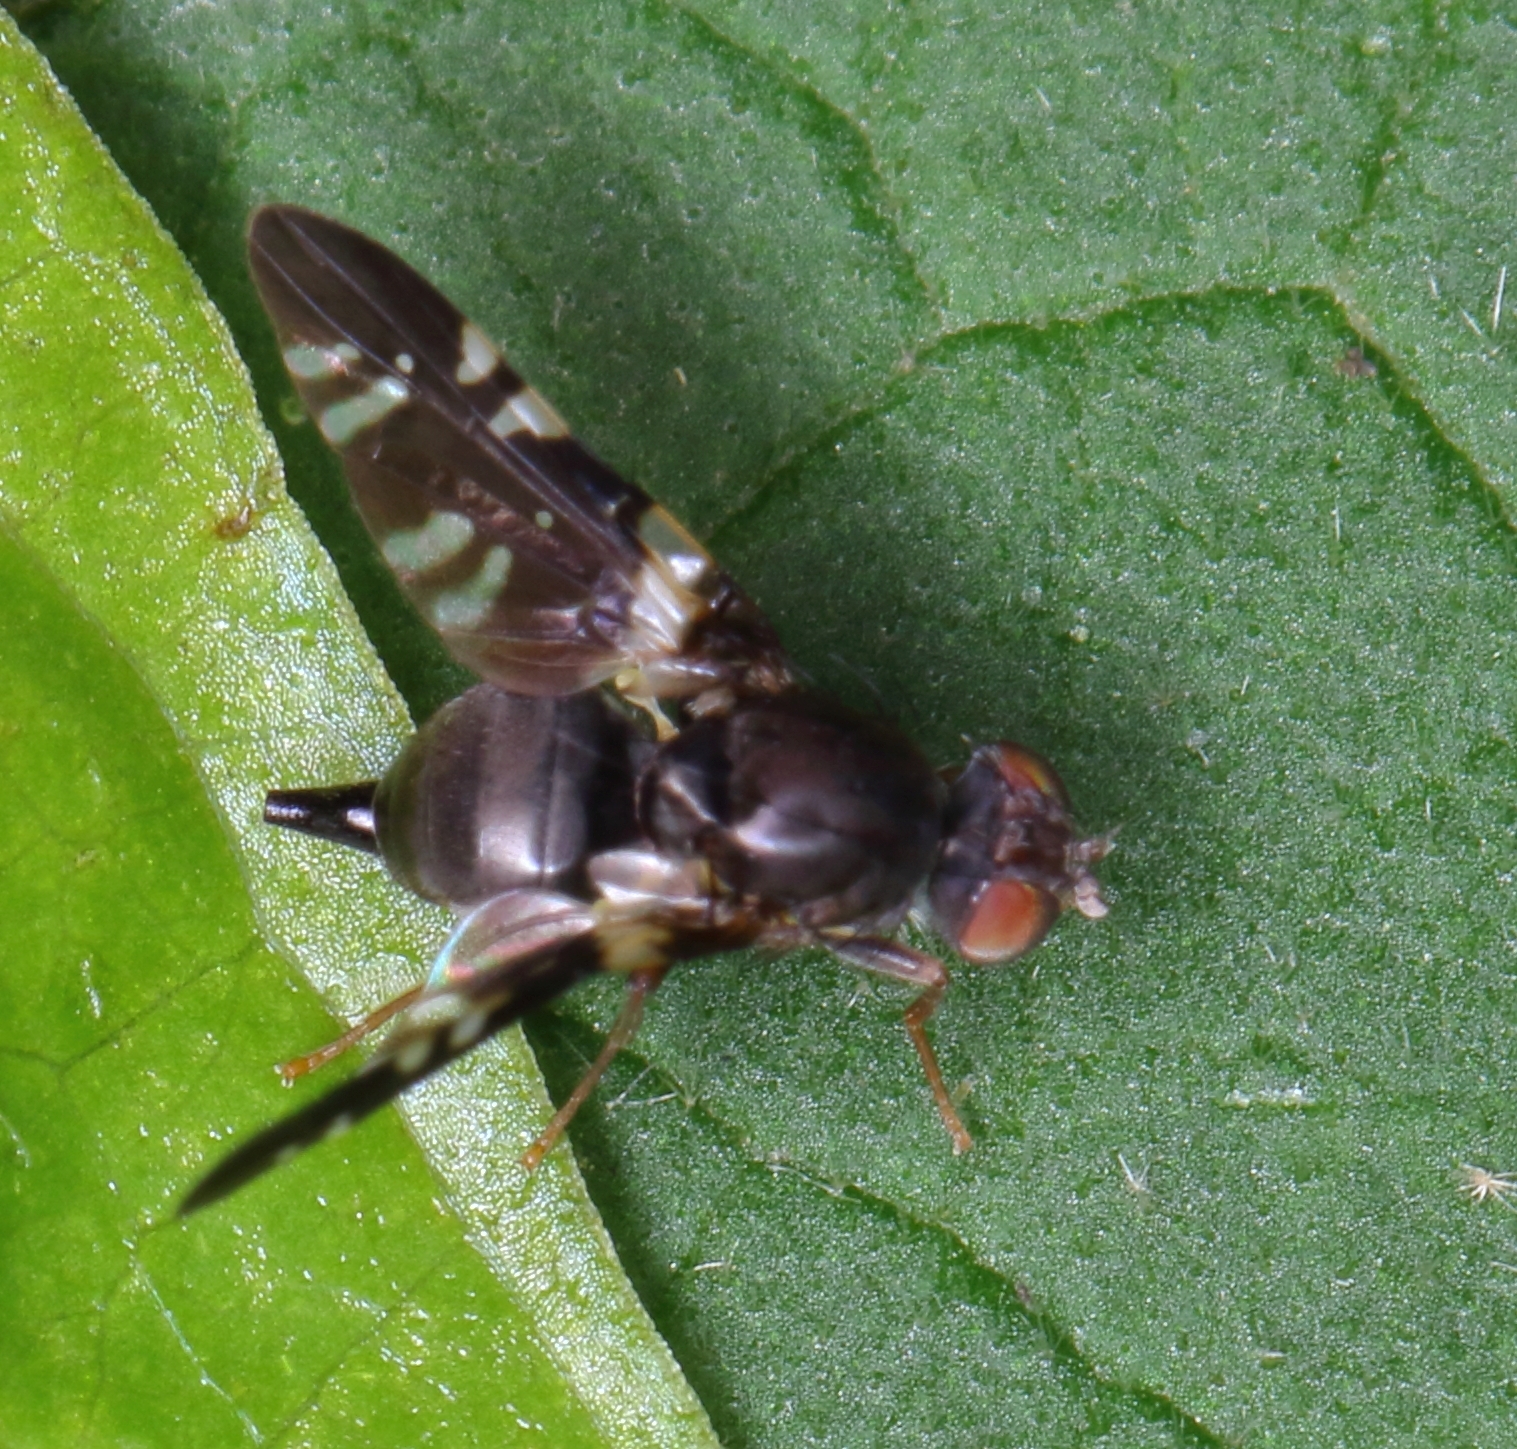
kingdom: Animalia
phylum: Arthropoda
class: Insecta
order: Diptera
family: Tephritidae
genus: Pediapelta
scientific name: Pediapelta spadicescens
